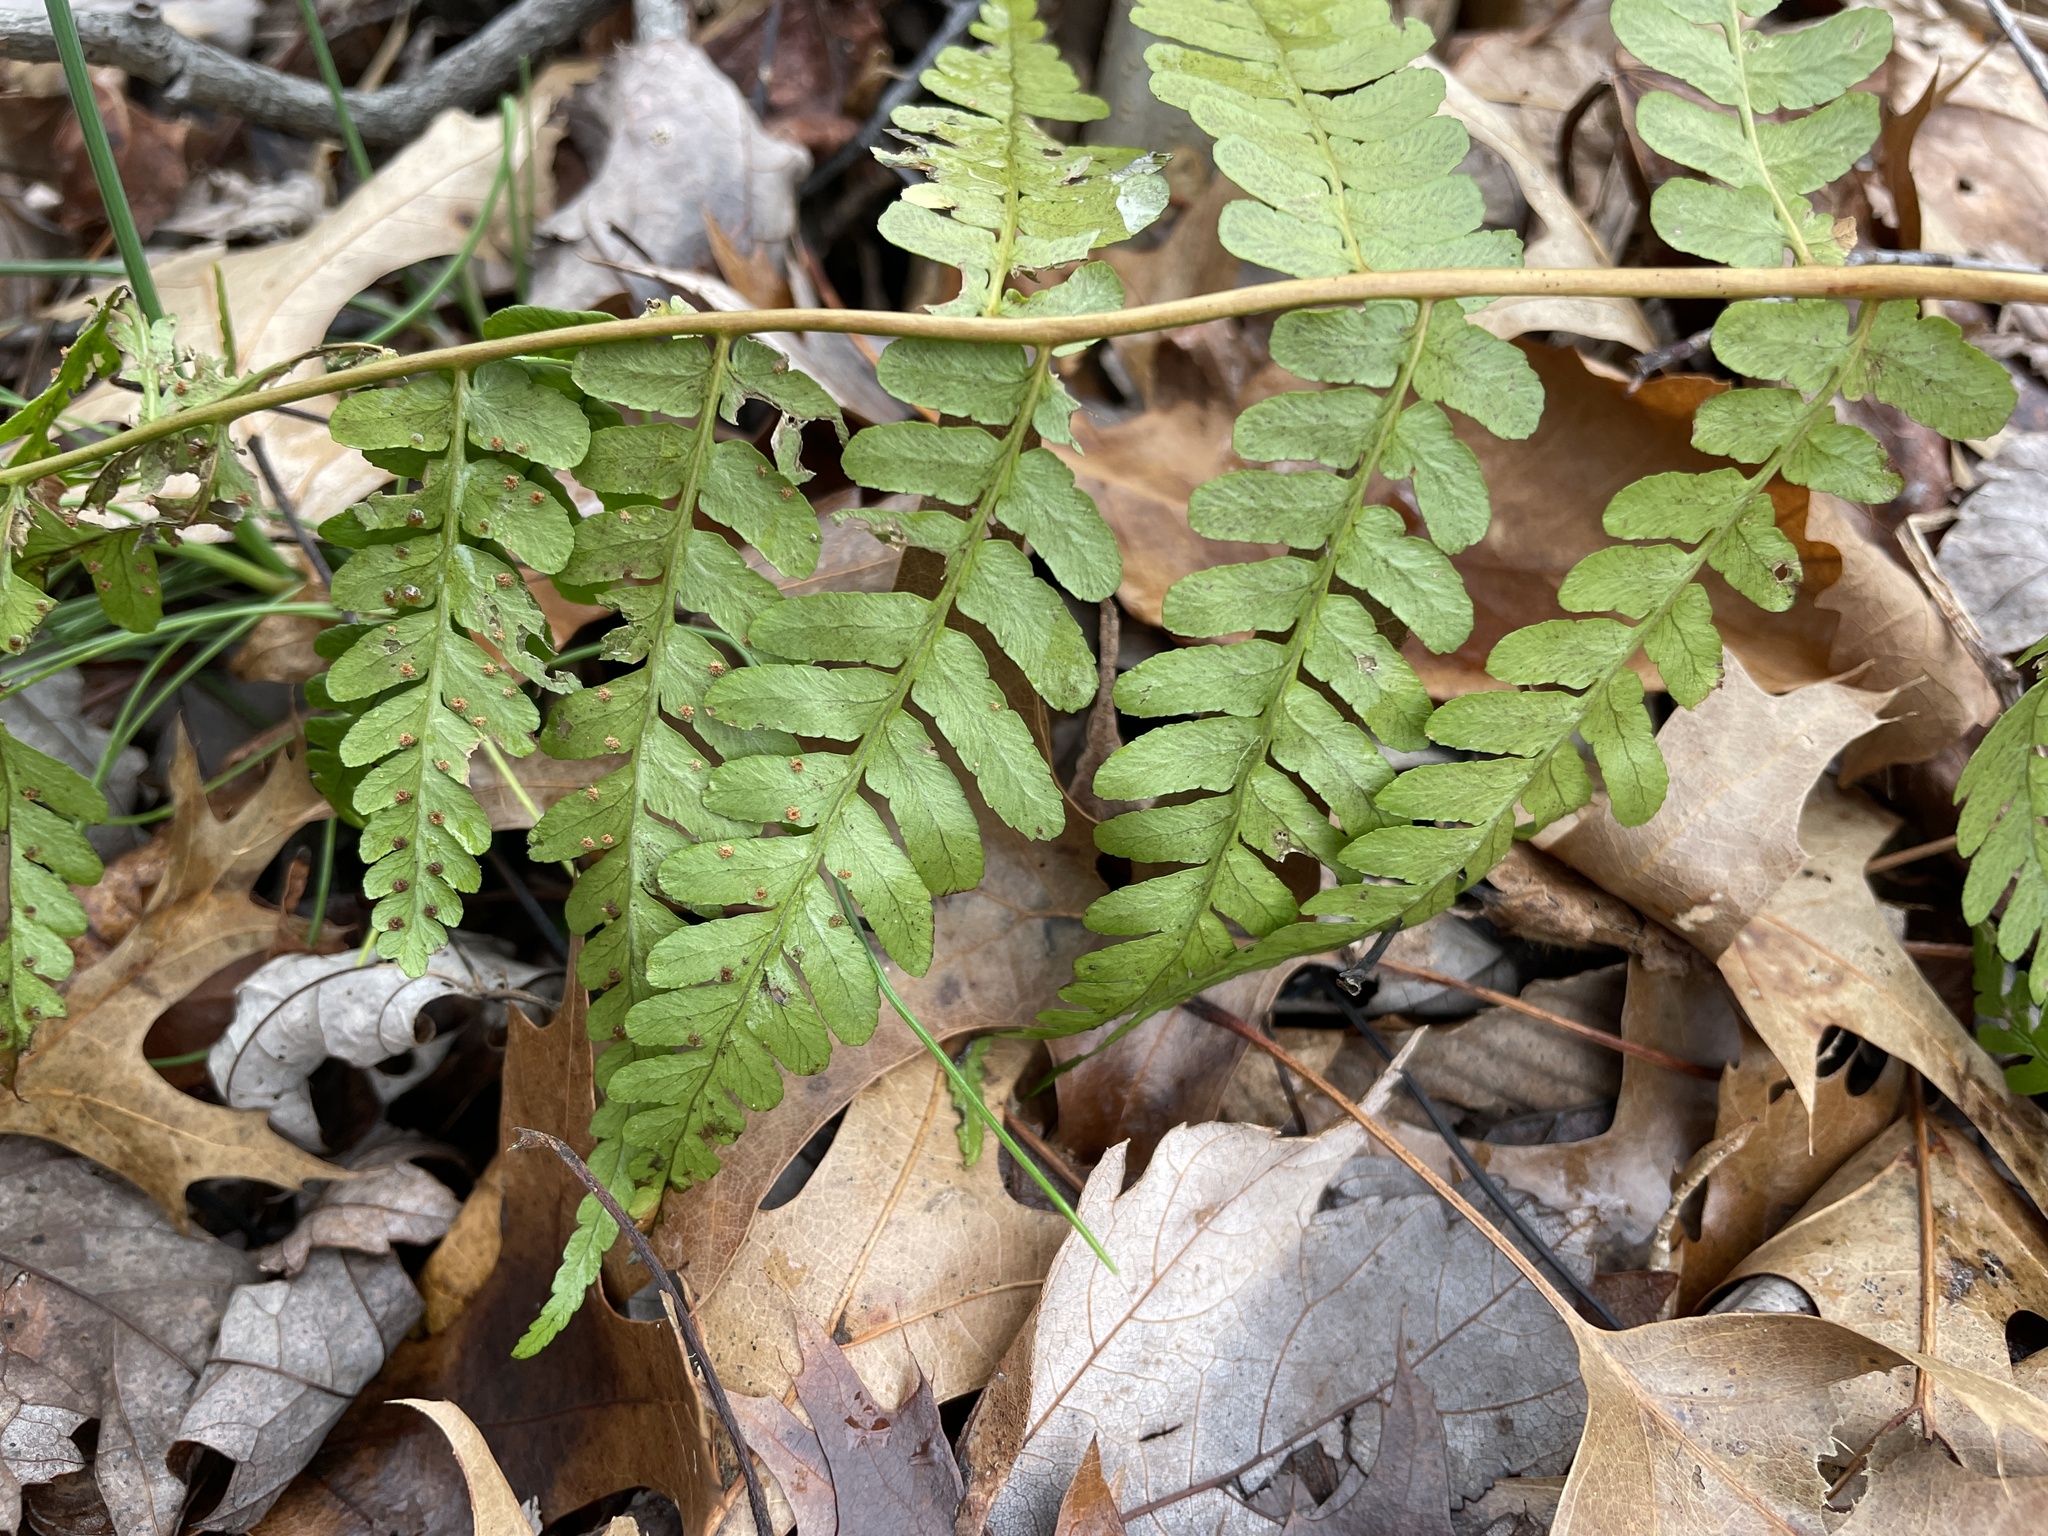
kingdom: Plantae
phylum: Tracheophyta
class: Polypodiopsida
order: Polypodiales
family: Dryopteridaceae
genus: Dryopteris
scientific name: Dryopteris marginalis
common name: Marginal wood fern
